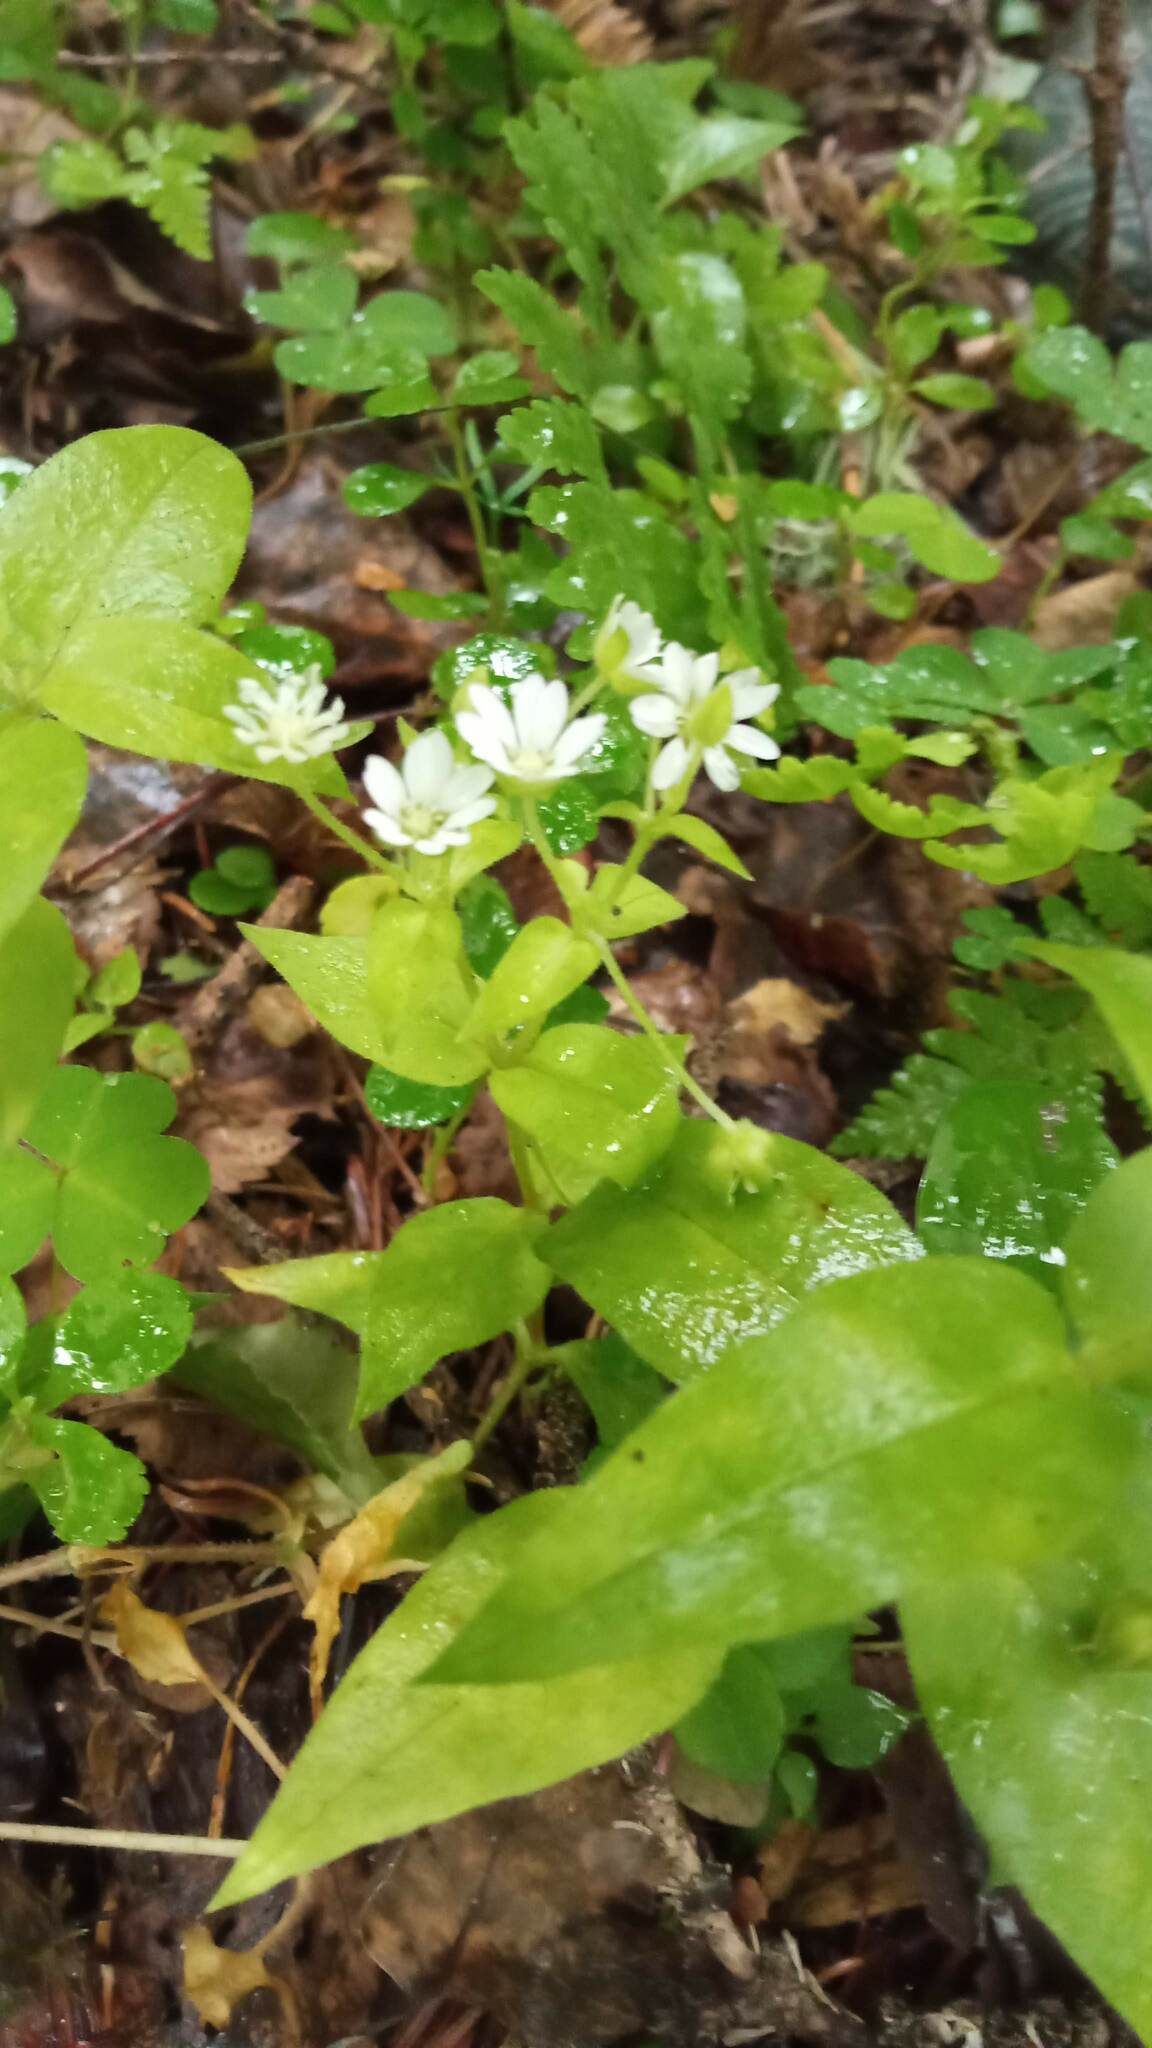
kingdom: Plantae
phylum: Tracheophyta
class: Magnoliopsida
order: Caryophyllales
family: Caryophyllaceae
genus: Stellaria
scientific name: Stellaria bungeana
